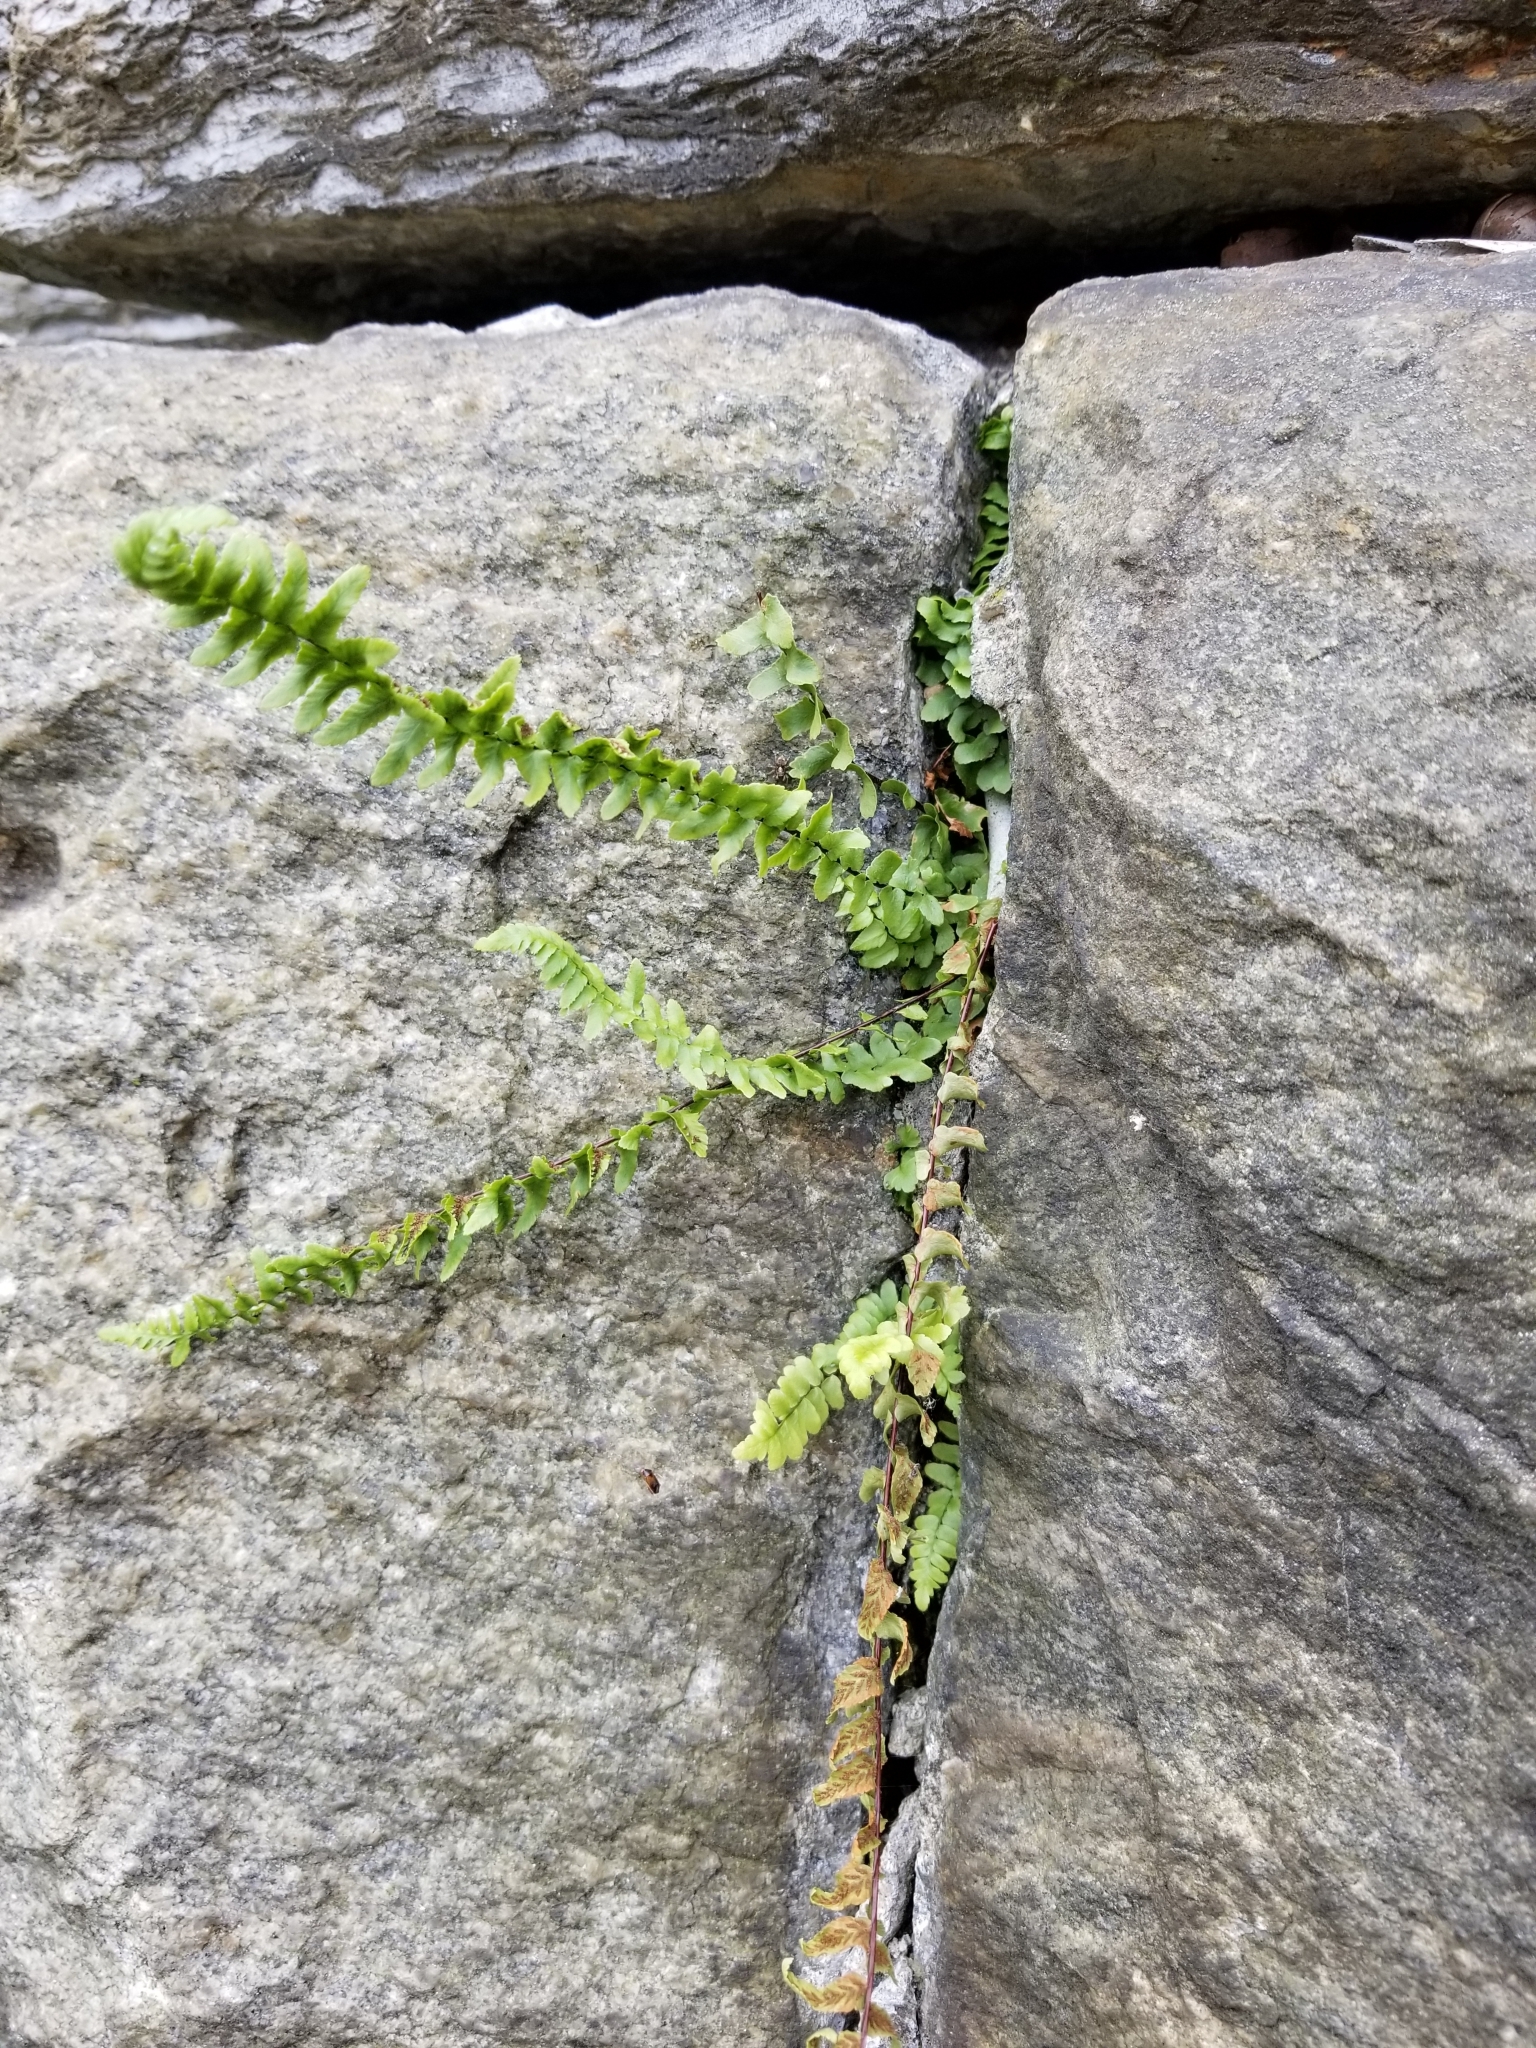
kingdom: Plantae
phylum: Tracheophyta
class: Polypodiopsida
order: Polypodiales
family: Aspleniaceae
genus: Asplenium
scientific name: Asplenium platyneuron
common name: Ebony spleenwort
